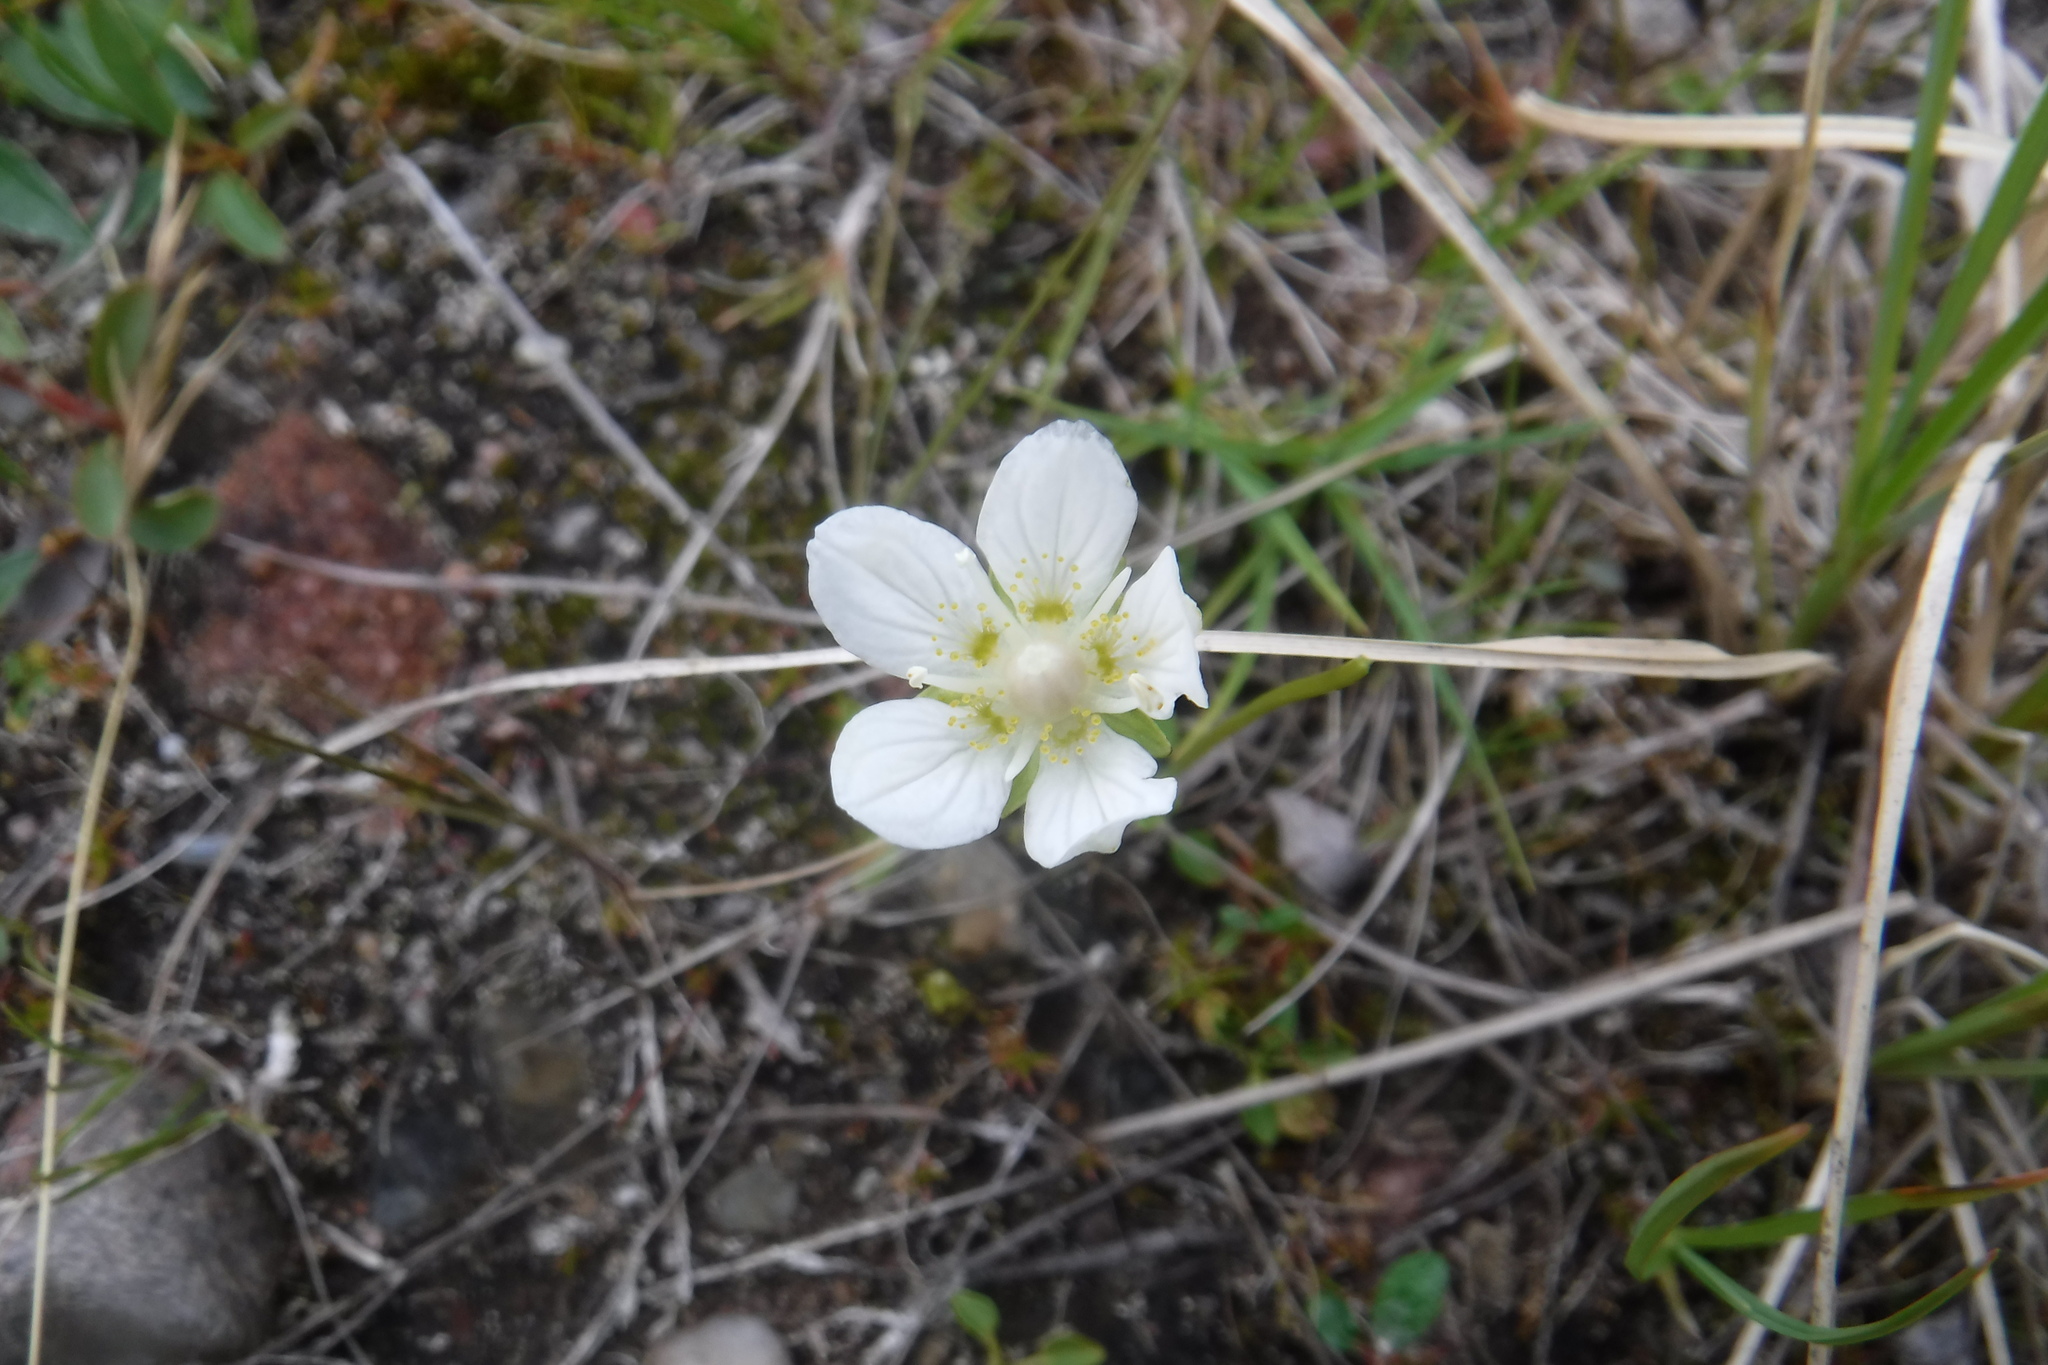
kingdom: Plantae
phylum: Tracheophyta
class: Magnoliopsida
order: Celastrales
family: Parnassiaceae
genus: Parnassia
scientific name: Parnassia palustris
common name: Grass-of-parnassus
